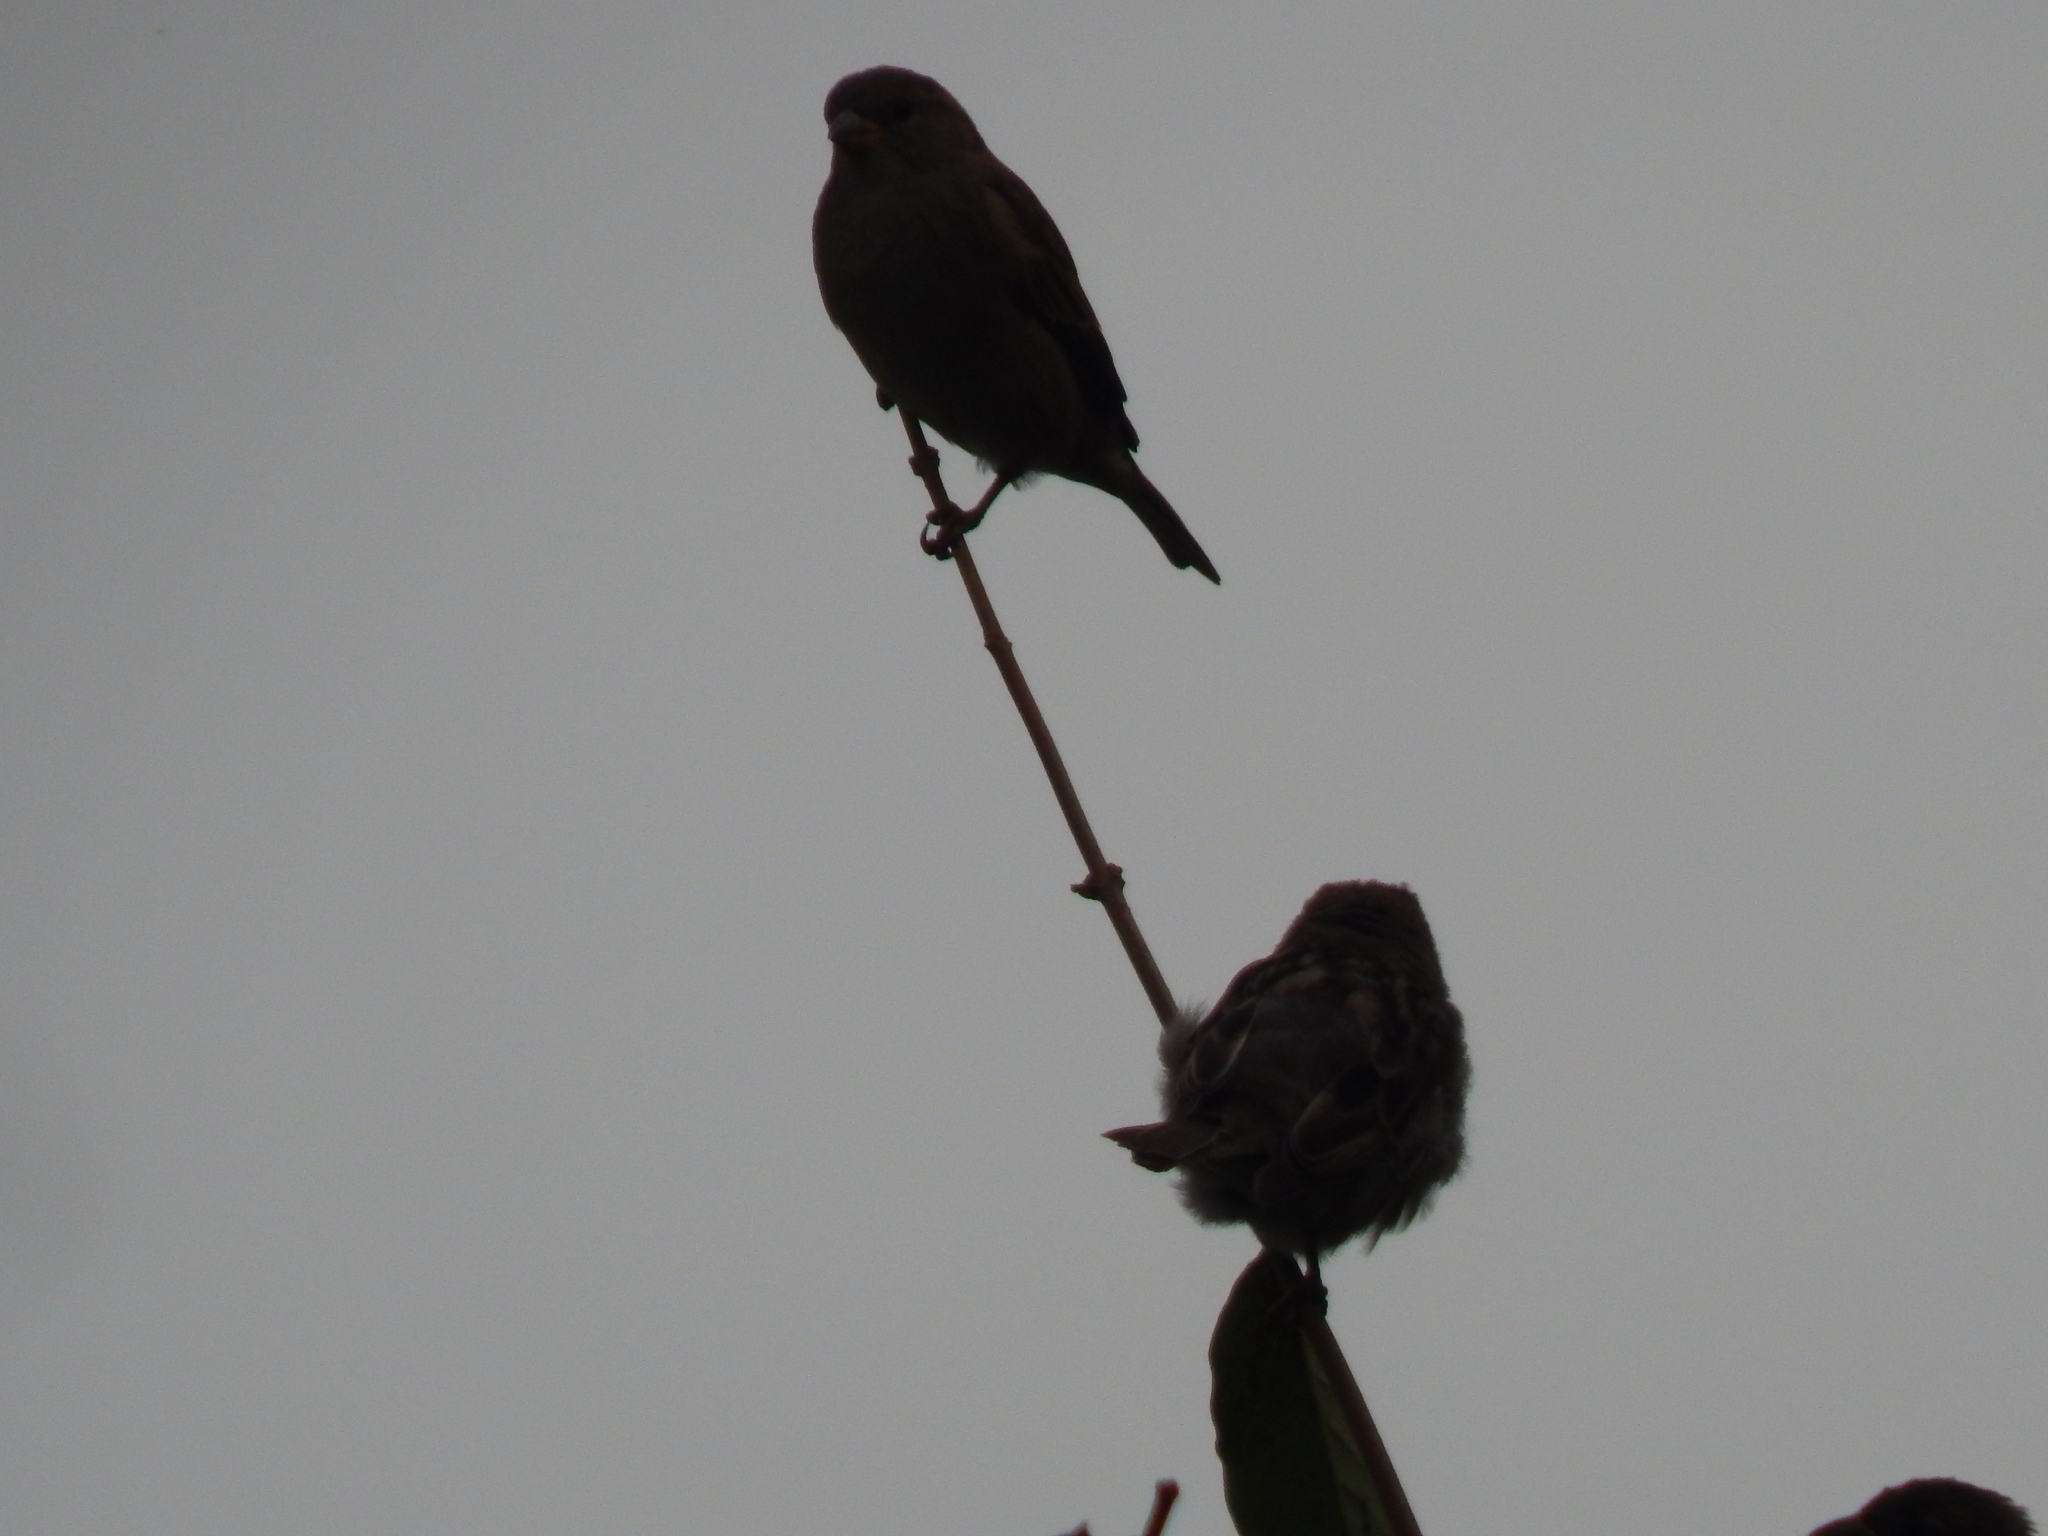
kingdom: Animalia
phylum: Chordata
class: Aves
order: Passeriformes
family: Passeridae
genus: Passer
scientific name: Passer domesticus
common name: House sparrow
